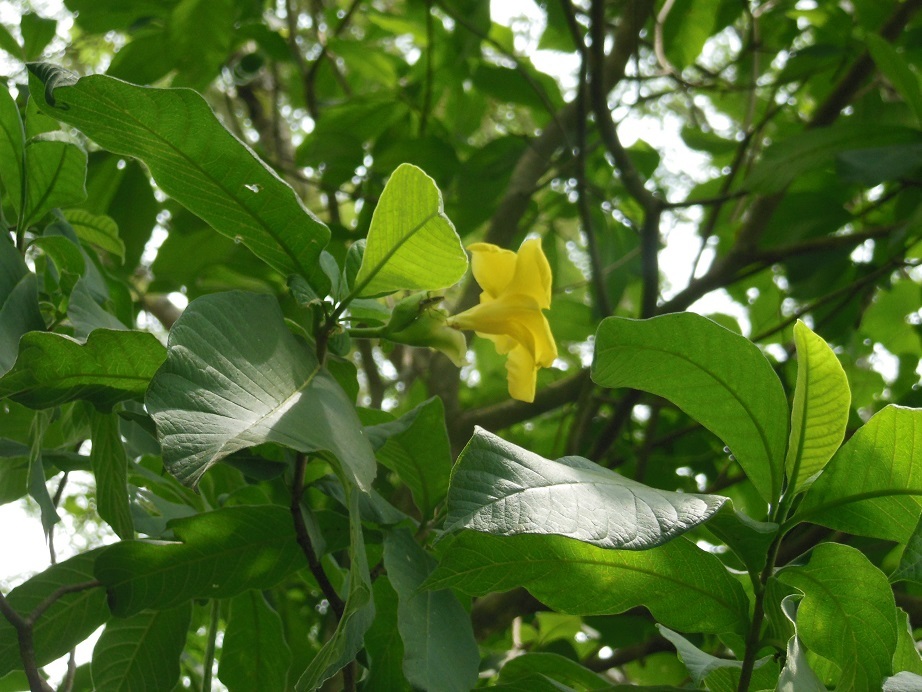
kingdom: Plantae
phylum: Tracheophyta
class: Magnoliopsida
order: Gentianales
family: Apocynaceae
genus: Tabernaemontana
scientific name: Tabernaemontana glabra
